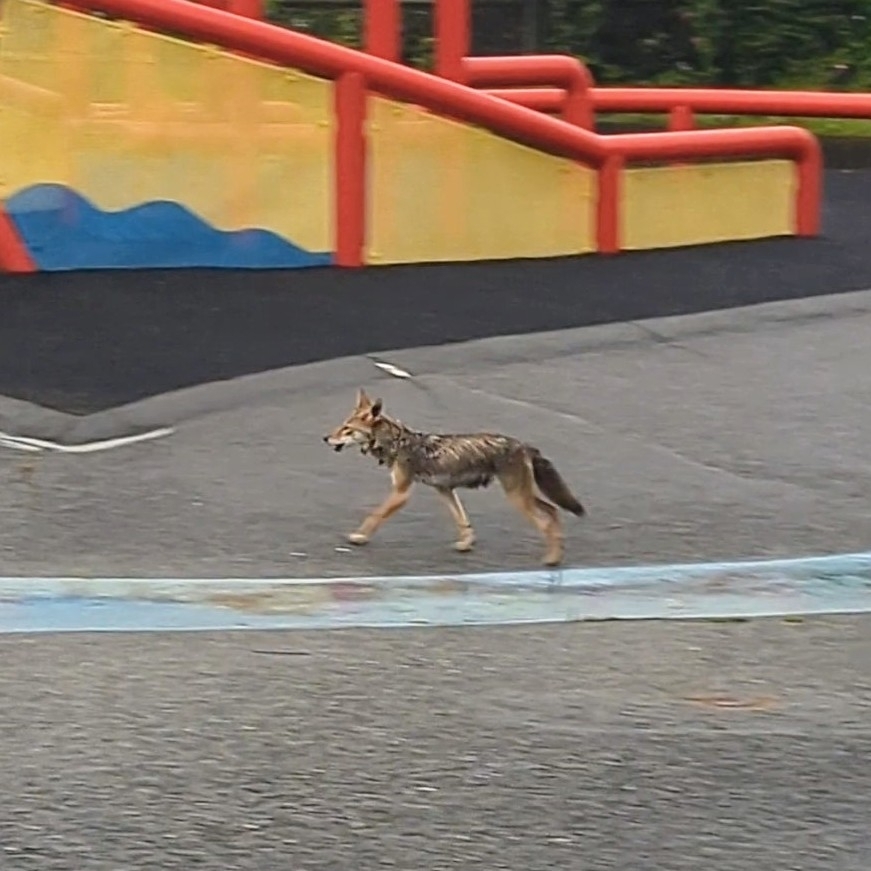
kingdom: Animalia
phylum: Chordata
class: Mammalia
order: Carnivora
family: Canidae
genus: Canis
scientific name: Canis latrans
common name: Coyote
